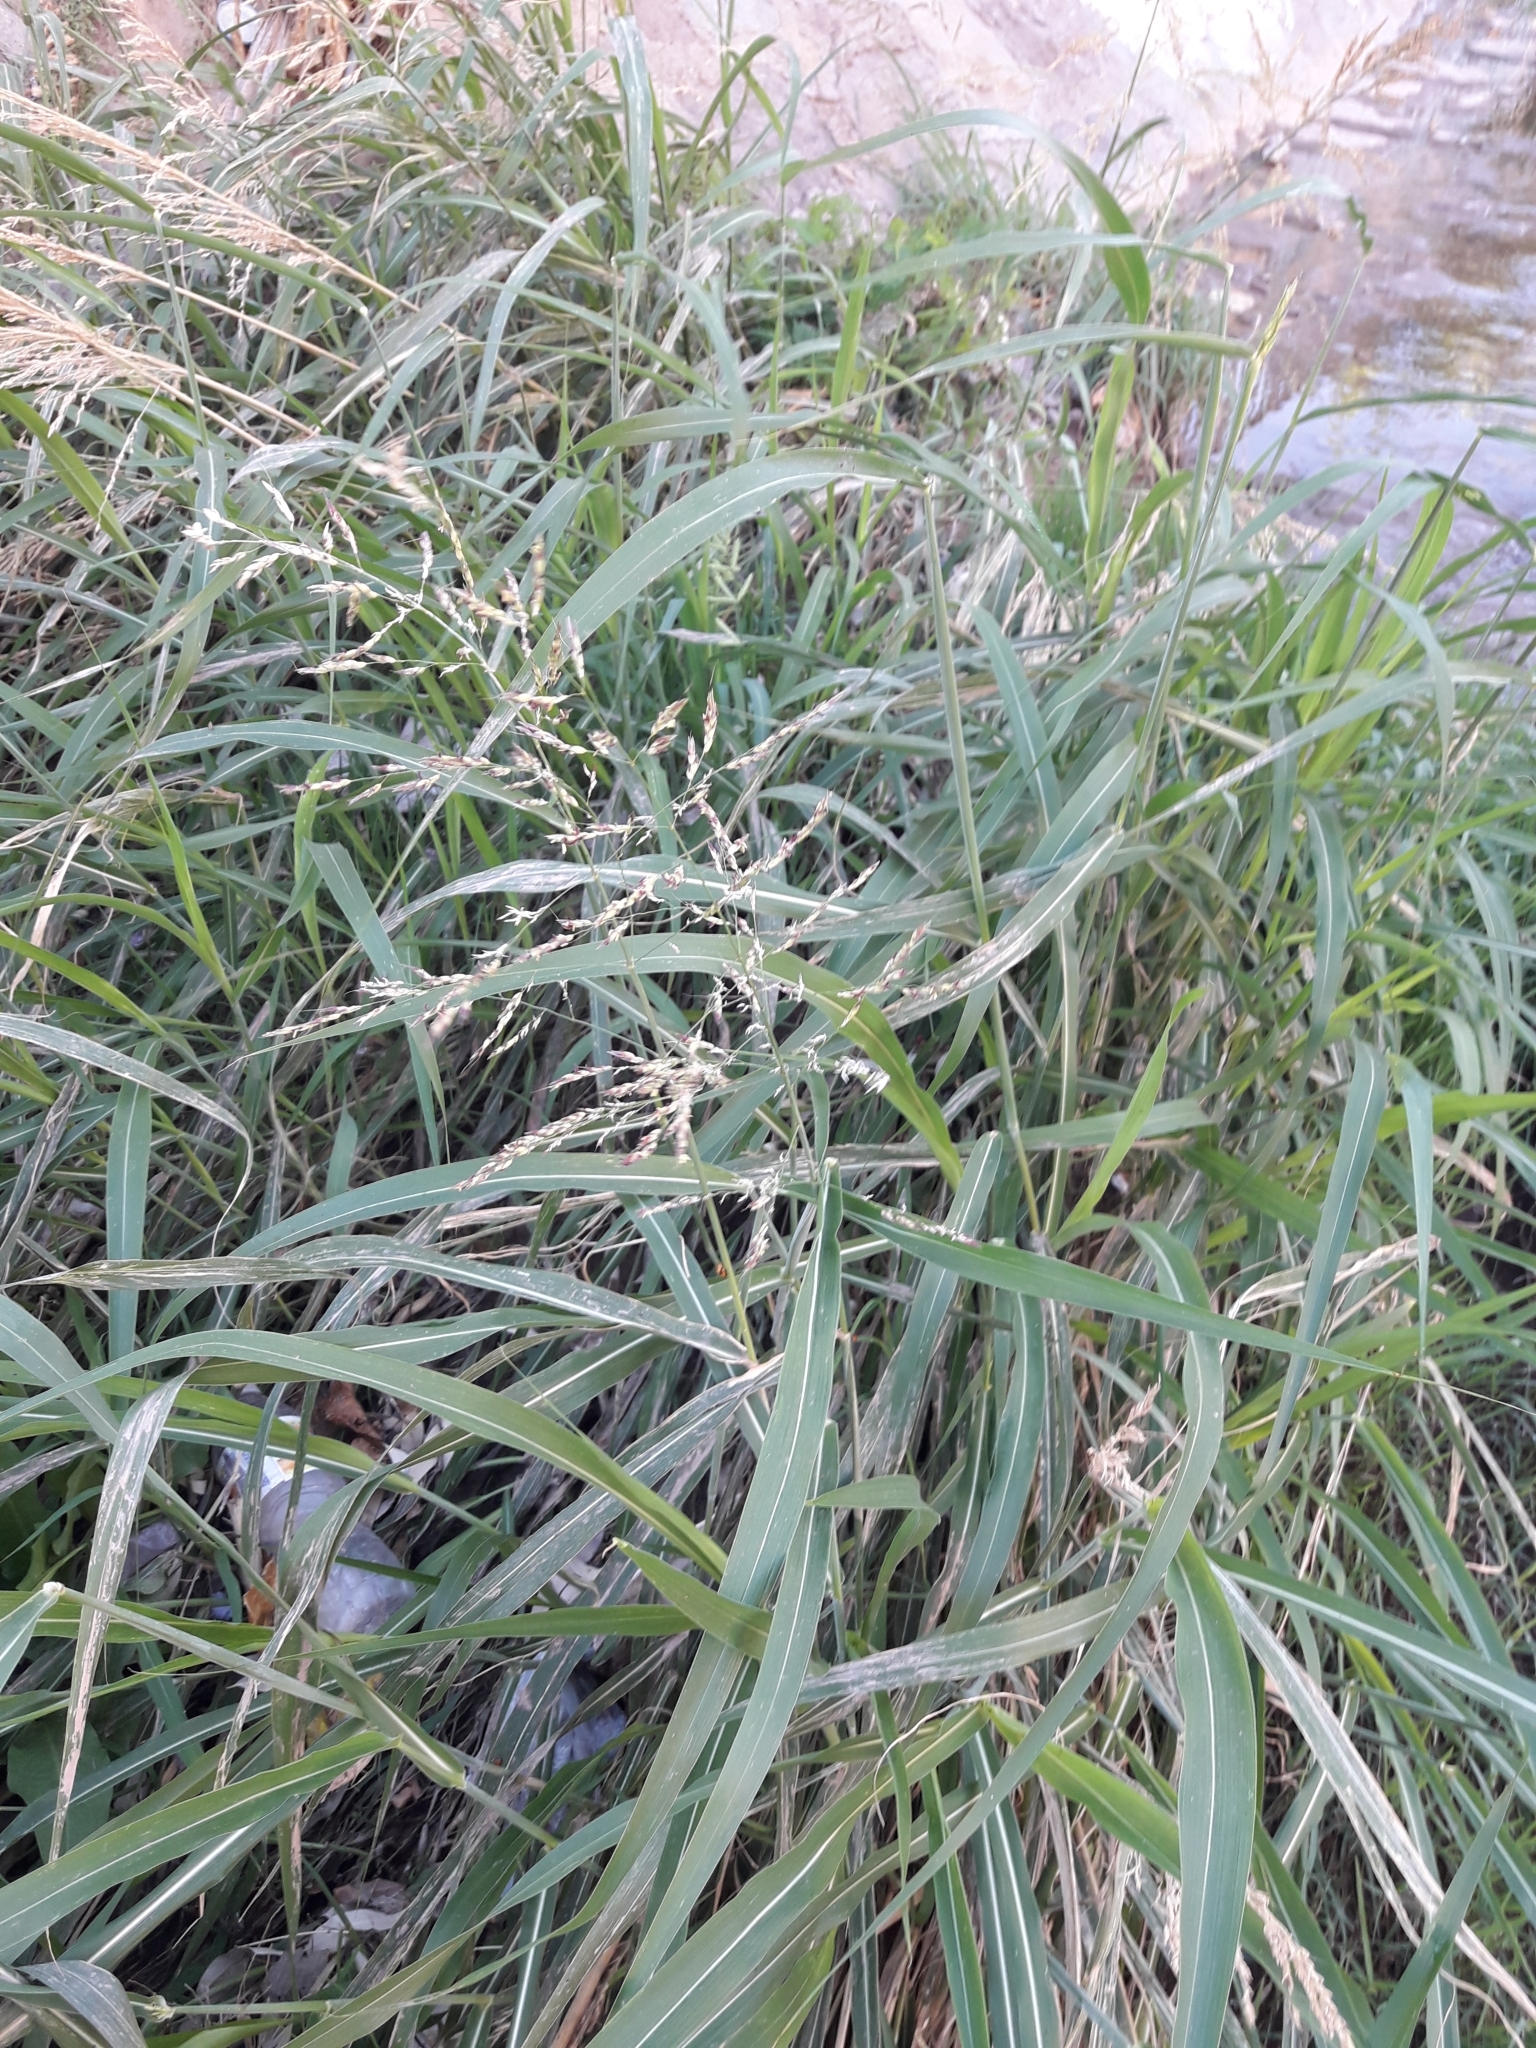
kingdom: Plantae
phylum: Tracheophyta
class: Liliopsida
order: Poales
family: Poaceae
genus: Sorghum
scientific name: Sorghum halepense
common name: Johnson-grass
